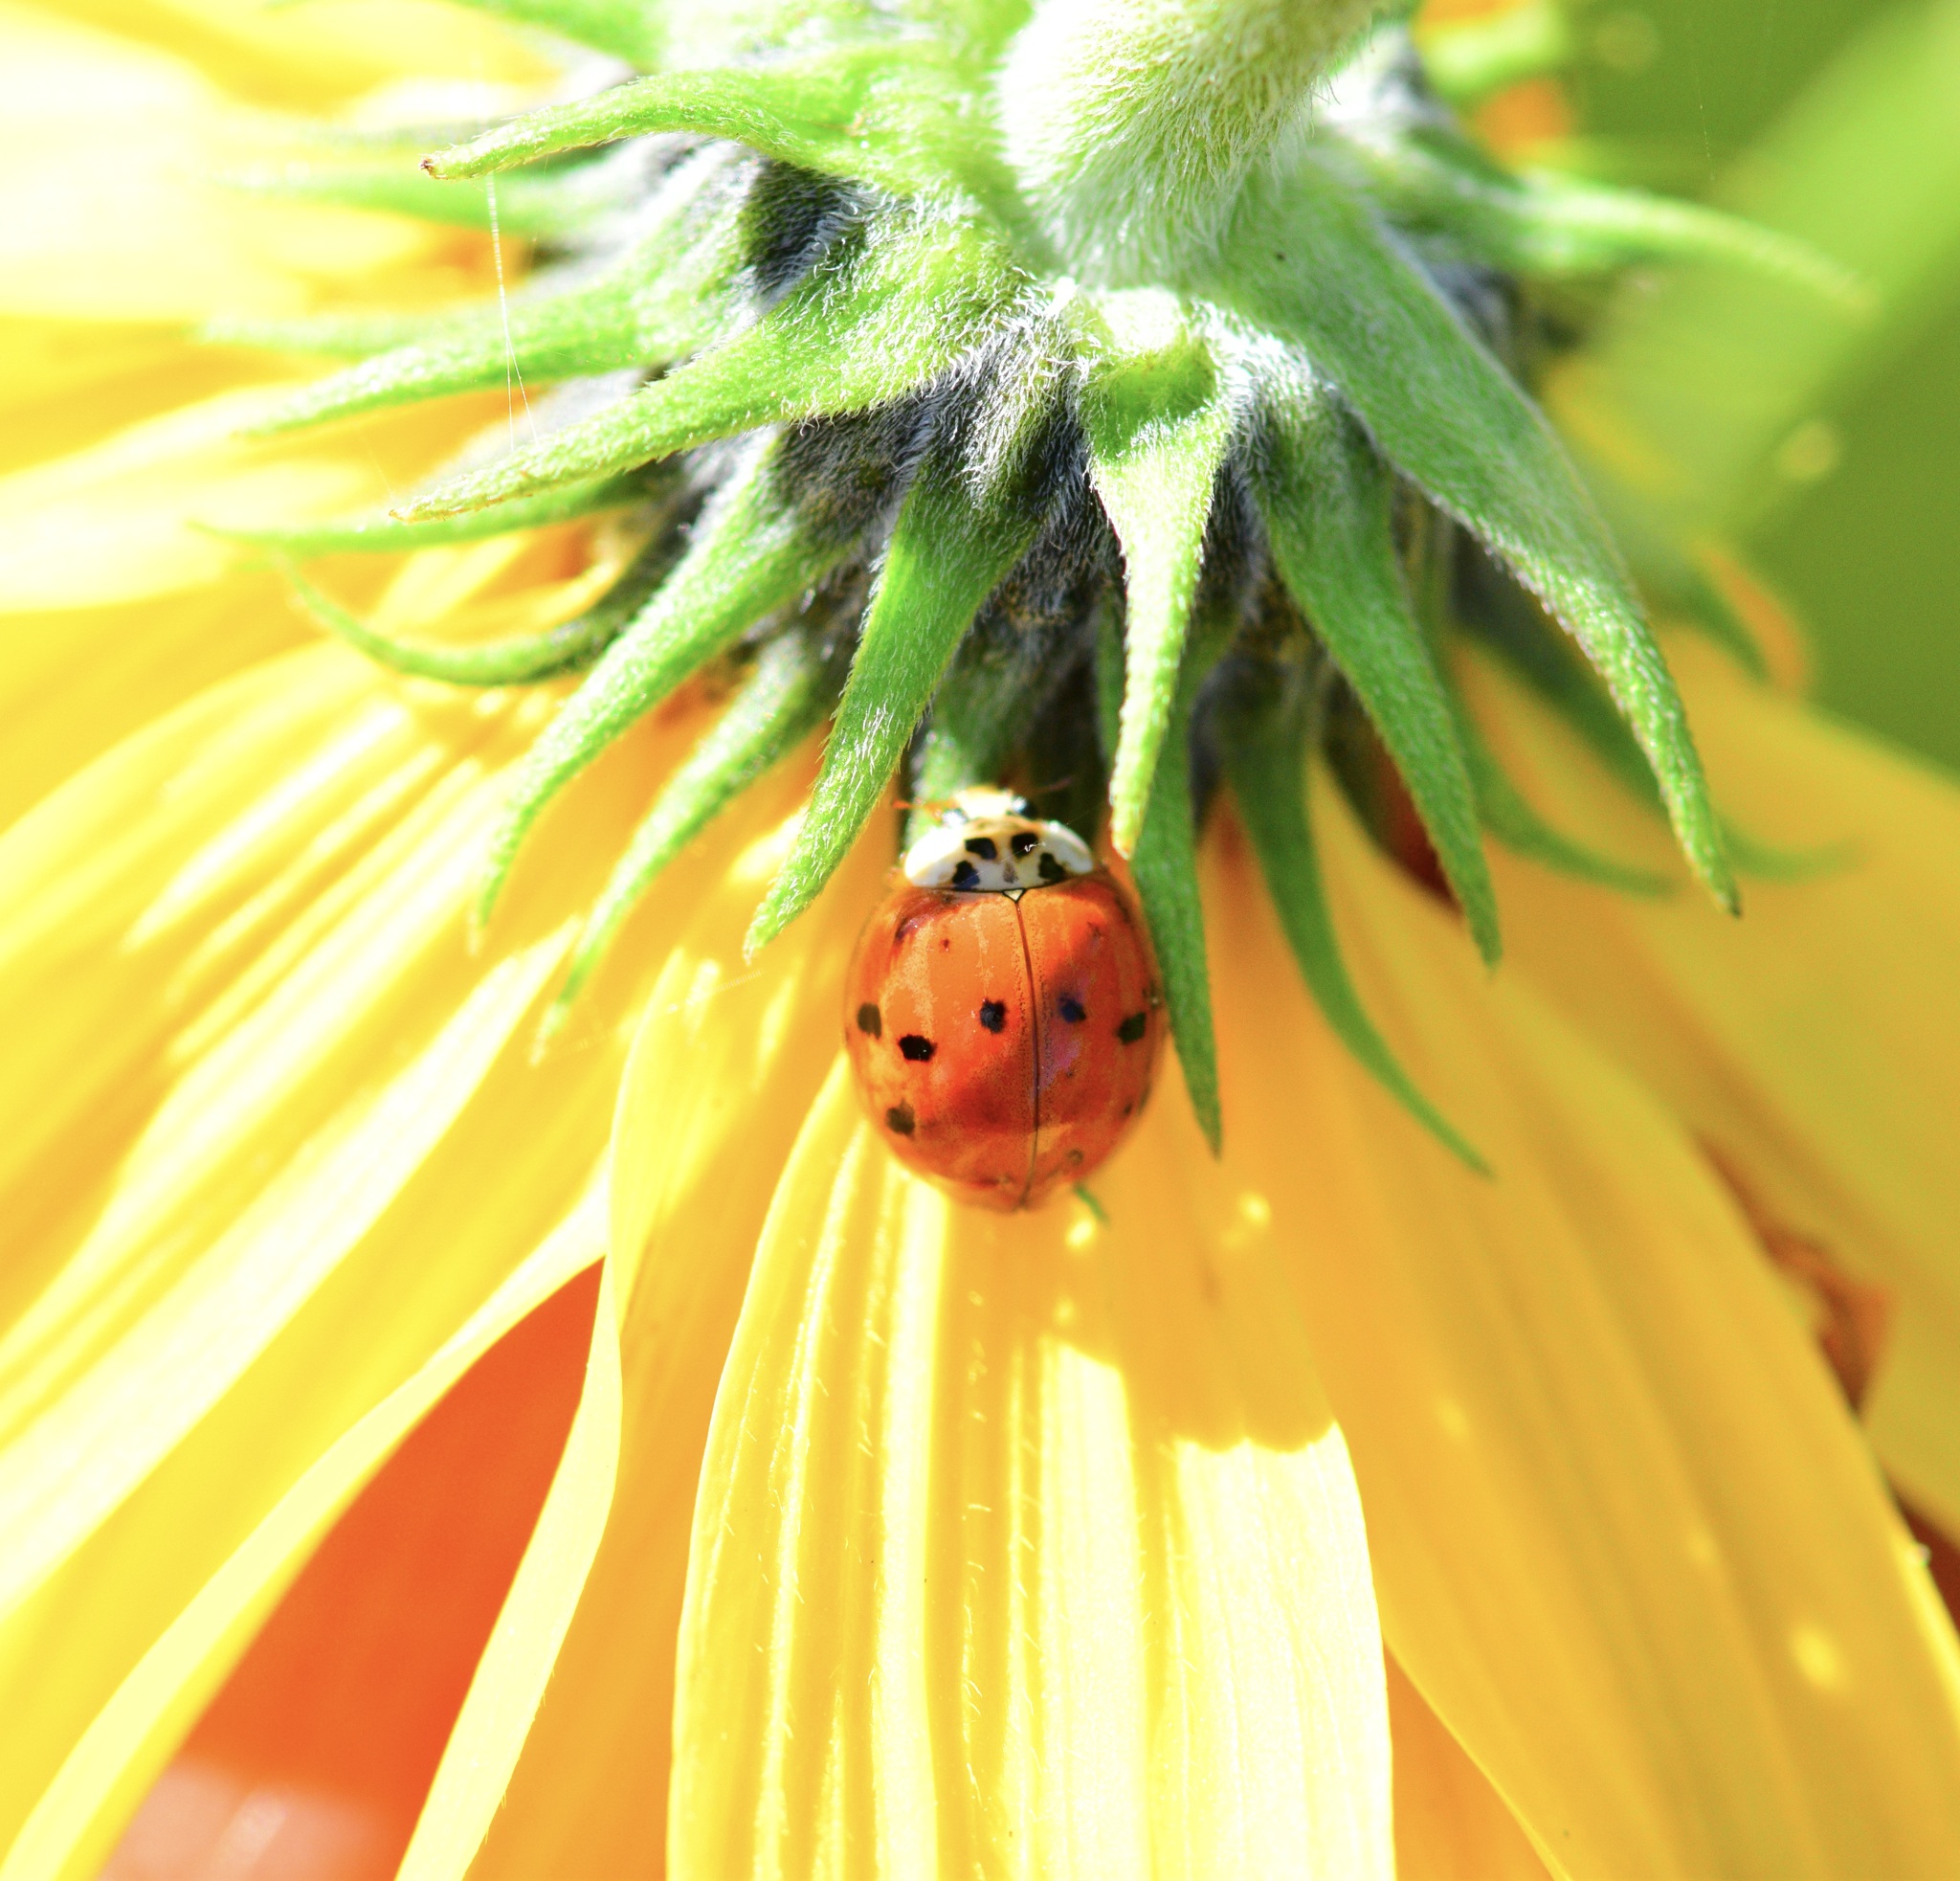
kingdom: Animalia
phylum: Arthropoda
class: Insecta
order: Coleoptera
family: Coccinellidae
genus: Harmonia
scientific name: Harmonia axyridis
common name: Harlequin ladybird
